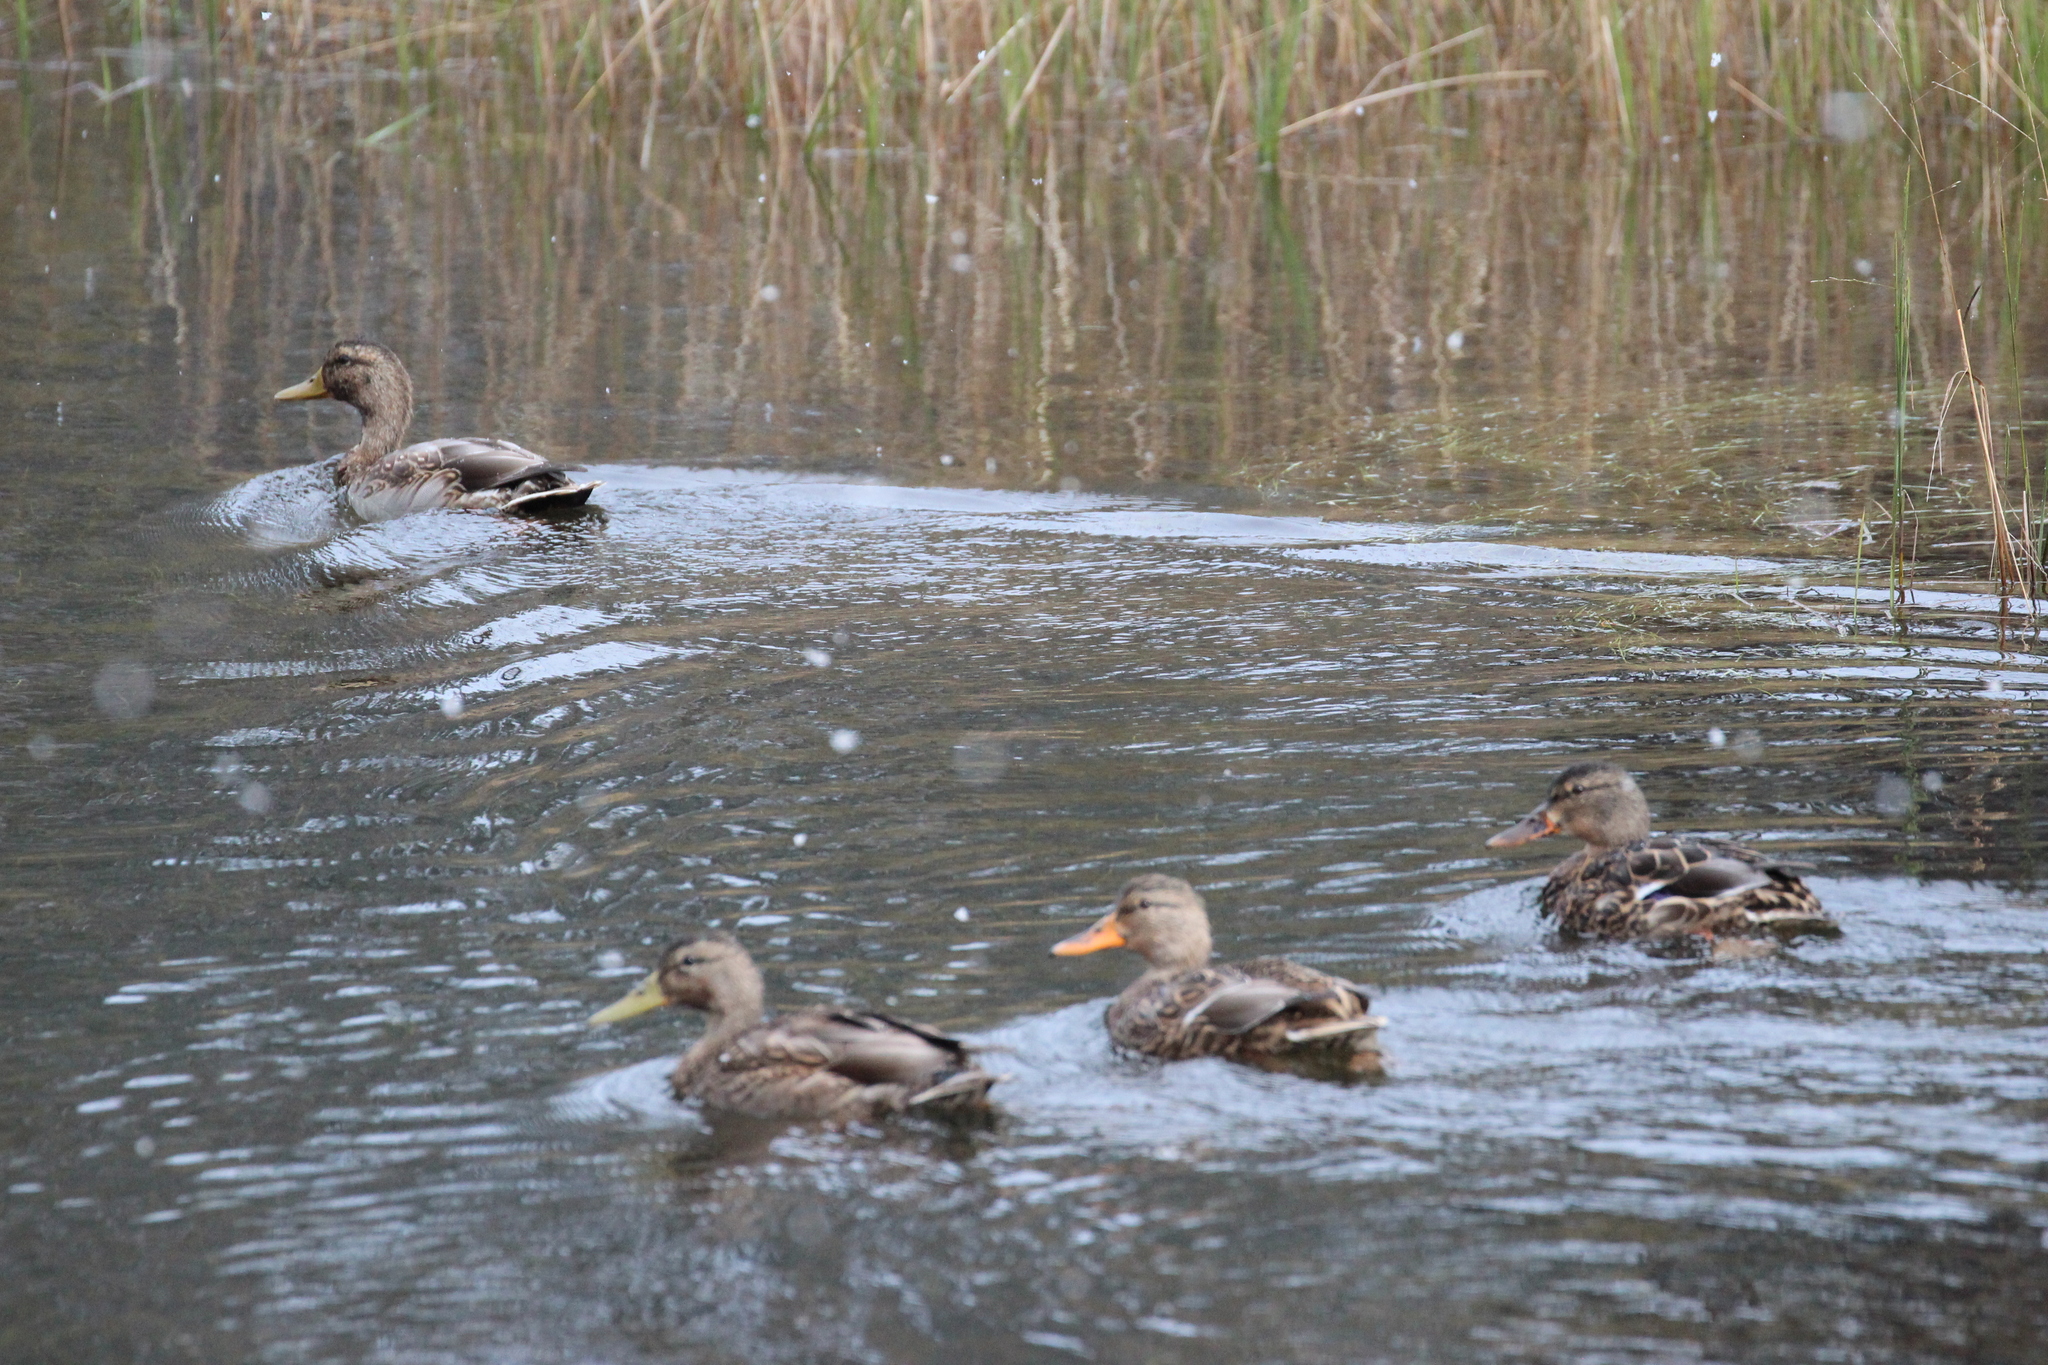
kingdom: Animalia
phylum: Chordata
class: Aves
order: Anseriformes
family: Anatidae
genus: Anas
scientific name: Anas platyrhynchos
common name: Mallard
